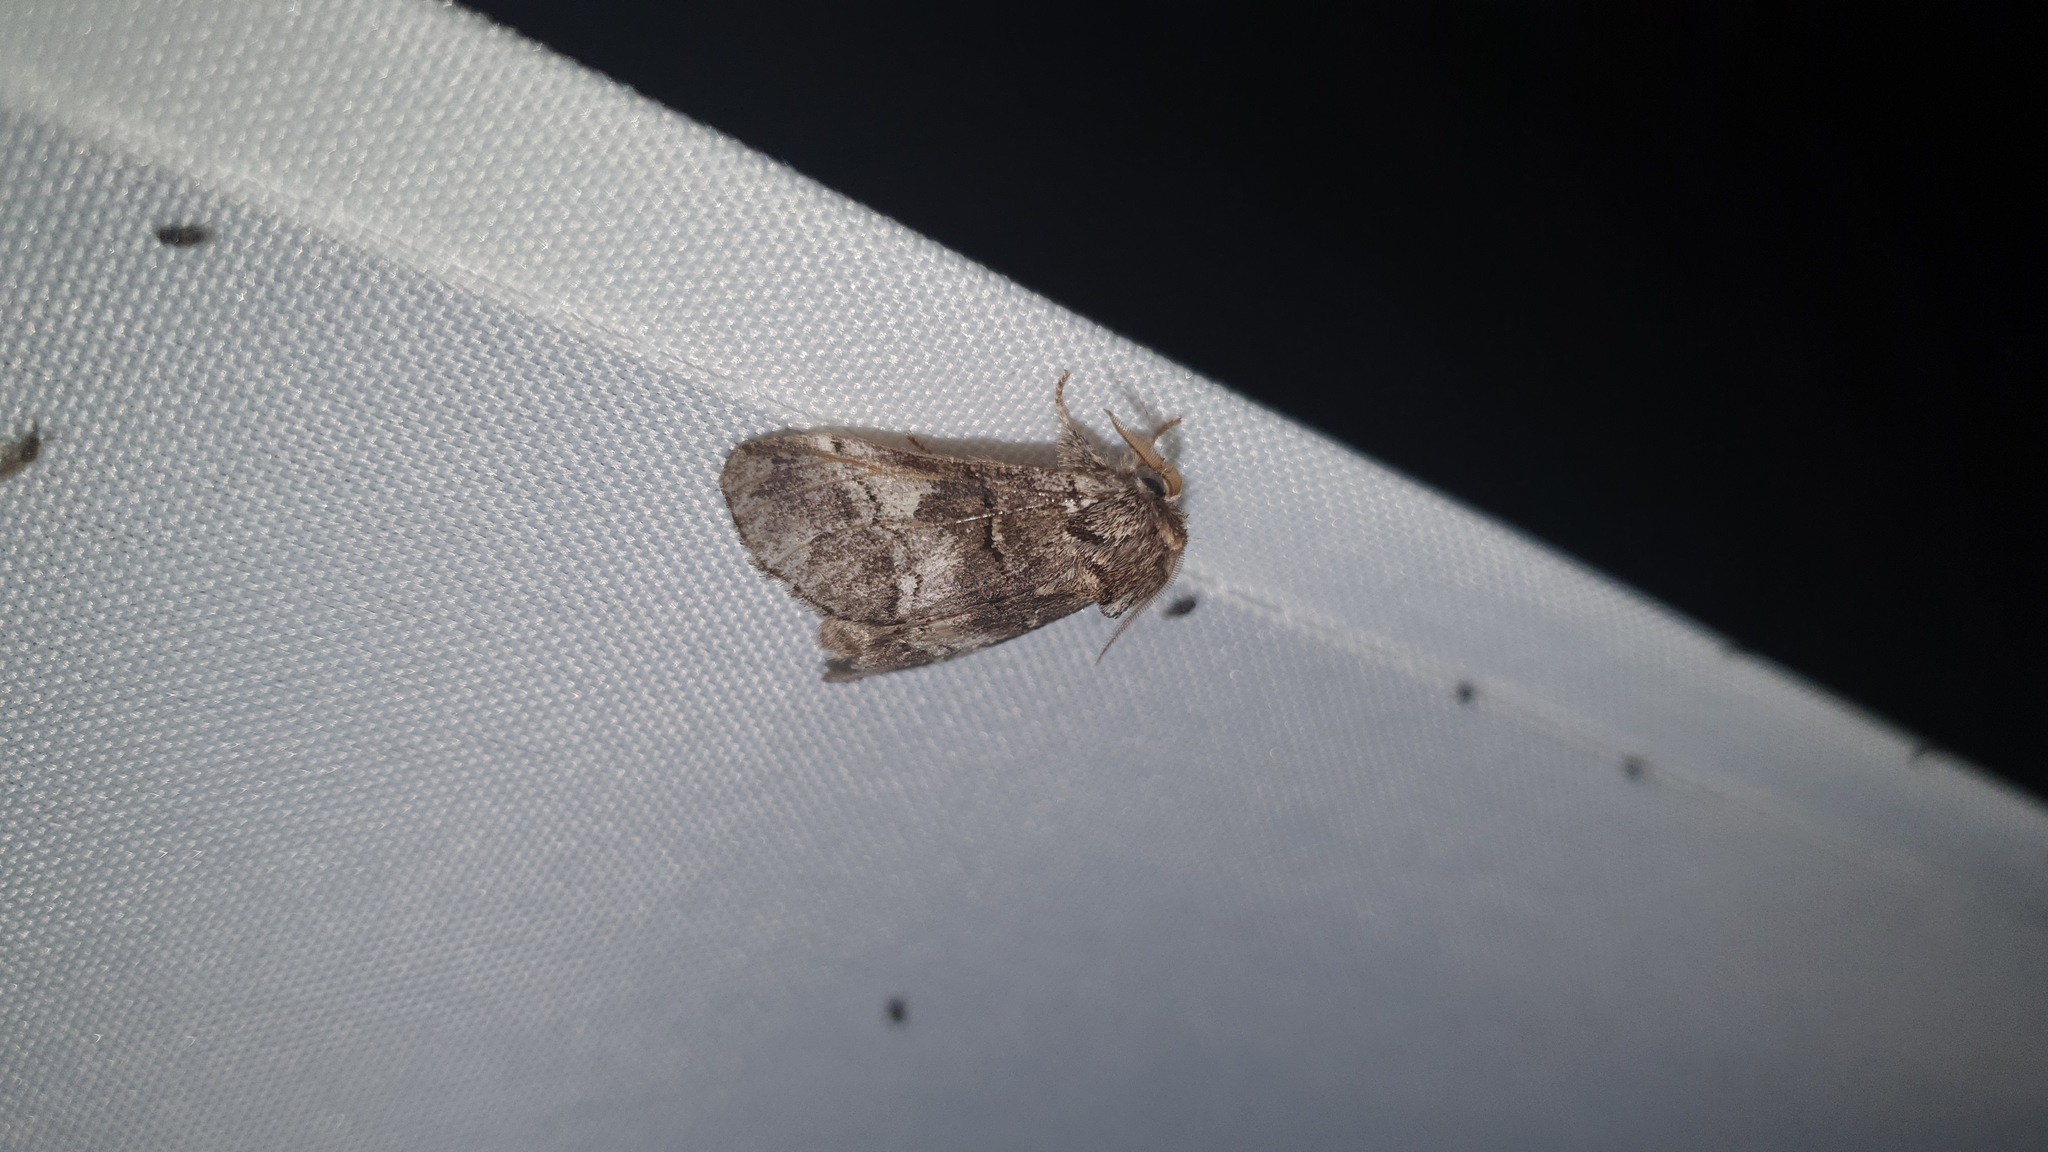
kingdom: Animalia
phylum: Arthropoda
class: Insecta
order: Lepidoptera
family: Notodontidae
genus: Drymonia
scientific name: Drymonia querna
